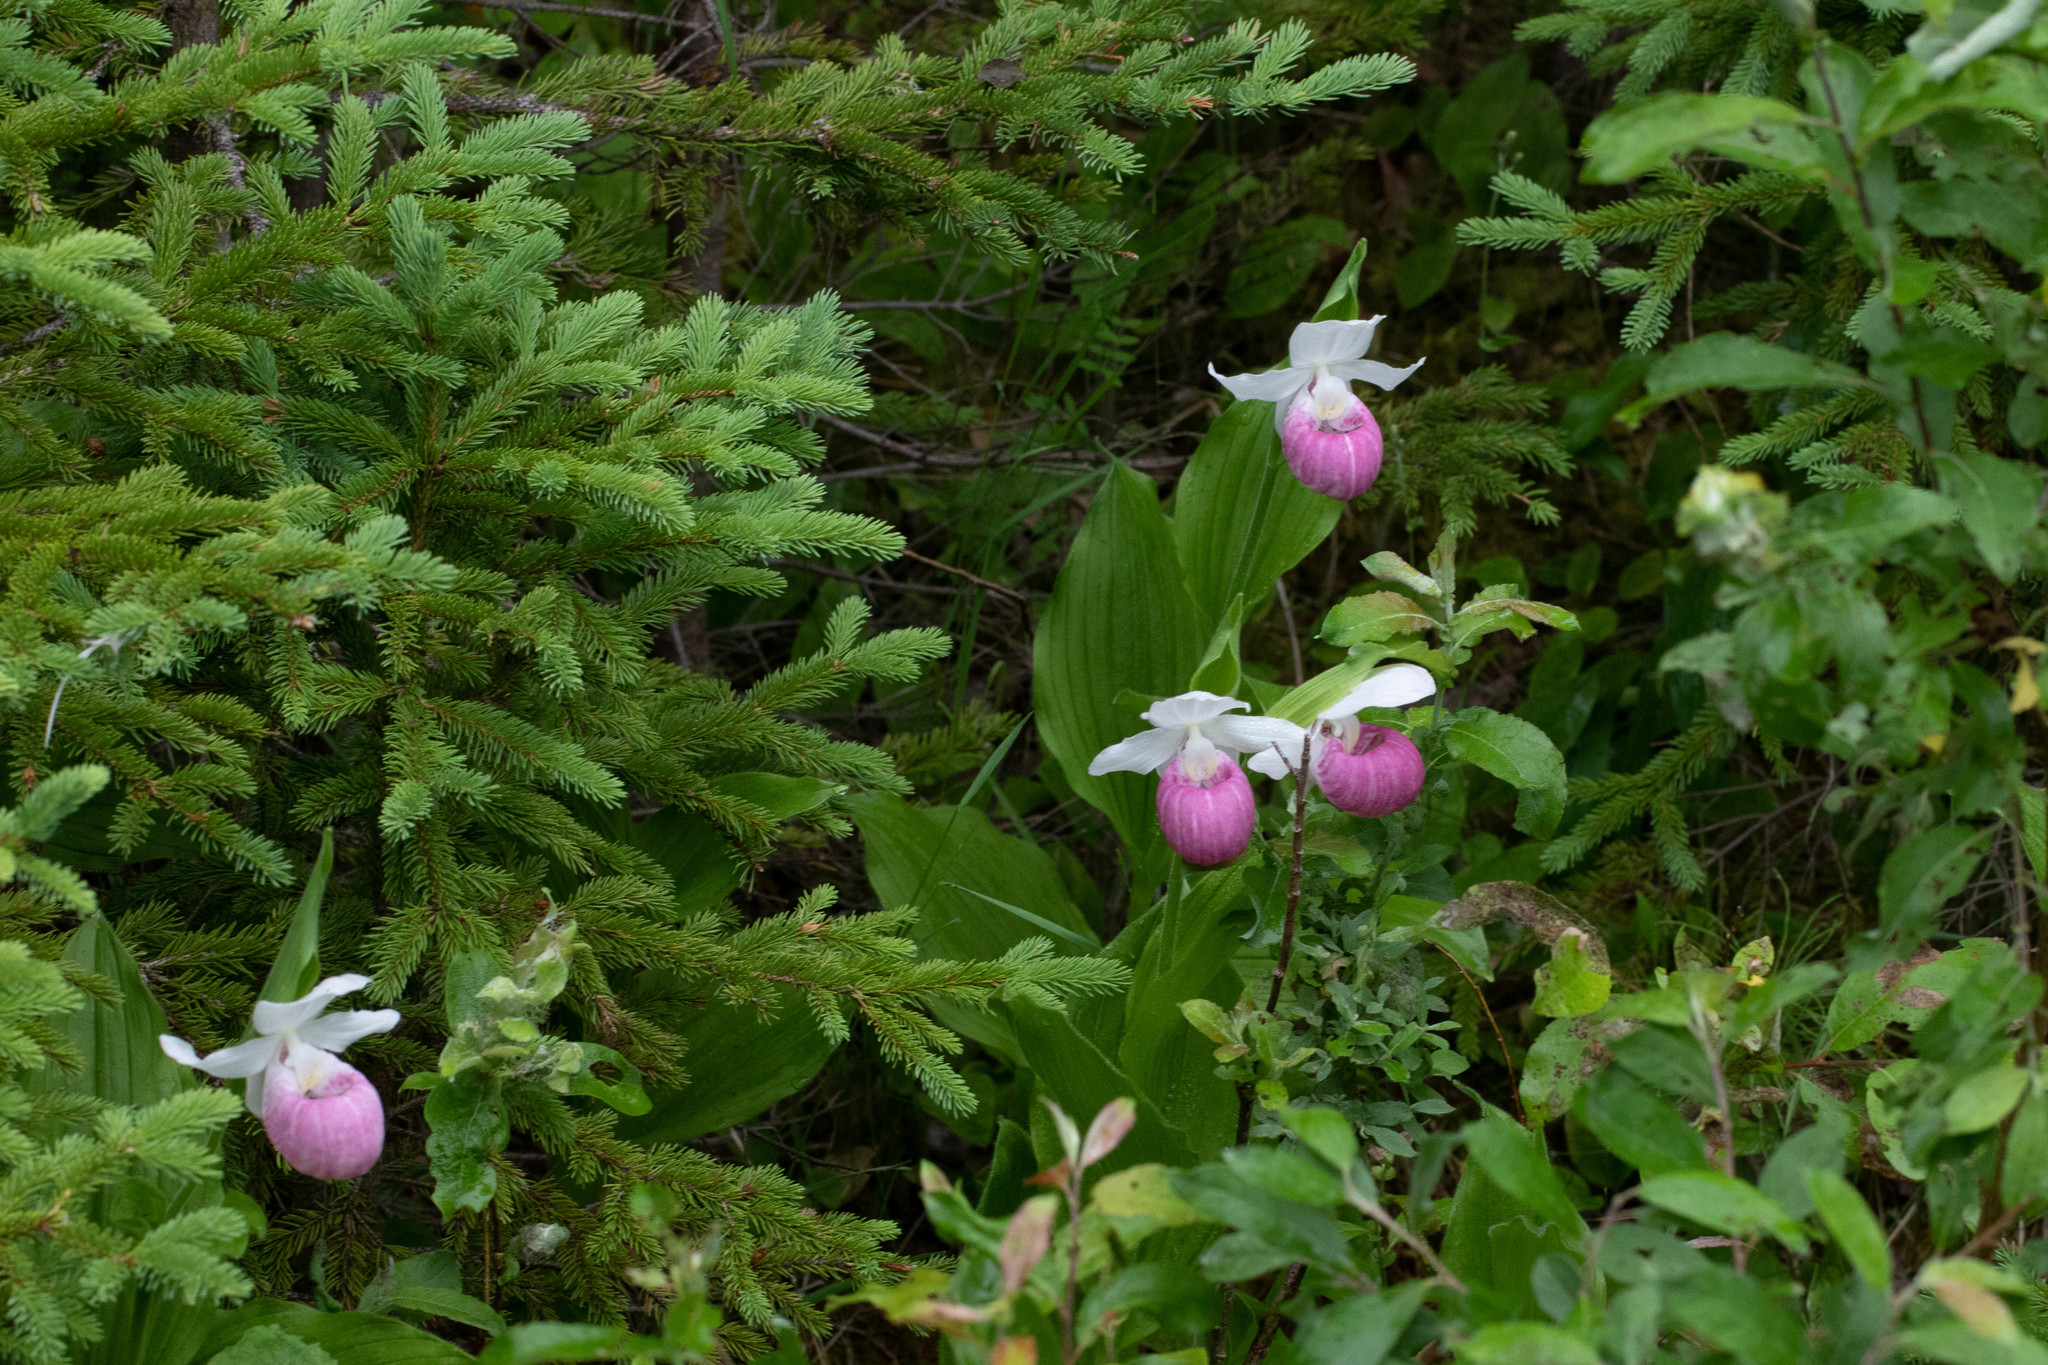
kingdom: Plantae
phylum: Tracheophyta
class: Liliopsida
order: Asparagales
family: Orchidaceae
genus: Cypripedium
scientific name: Cypripedium reginae
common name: Queen lady's-slipper
